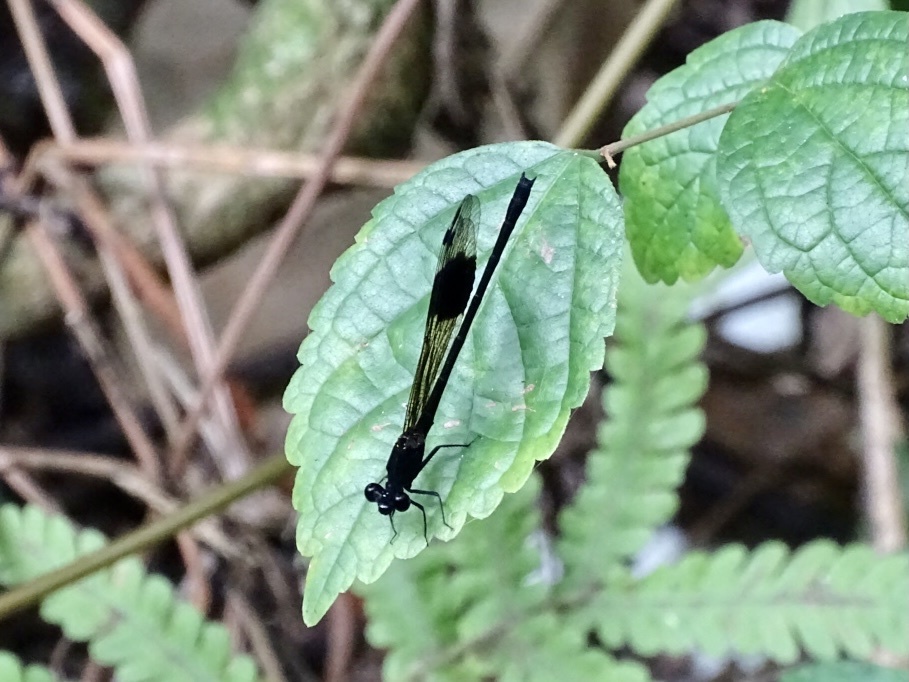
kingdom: Animalia
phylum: Arthropoda
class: Insecta
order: Odonata
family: Euphaeidae
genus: Euphaea
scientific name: Euphaea decorata
